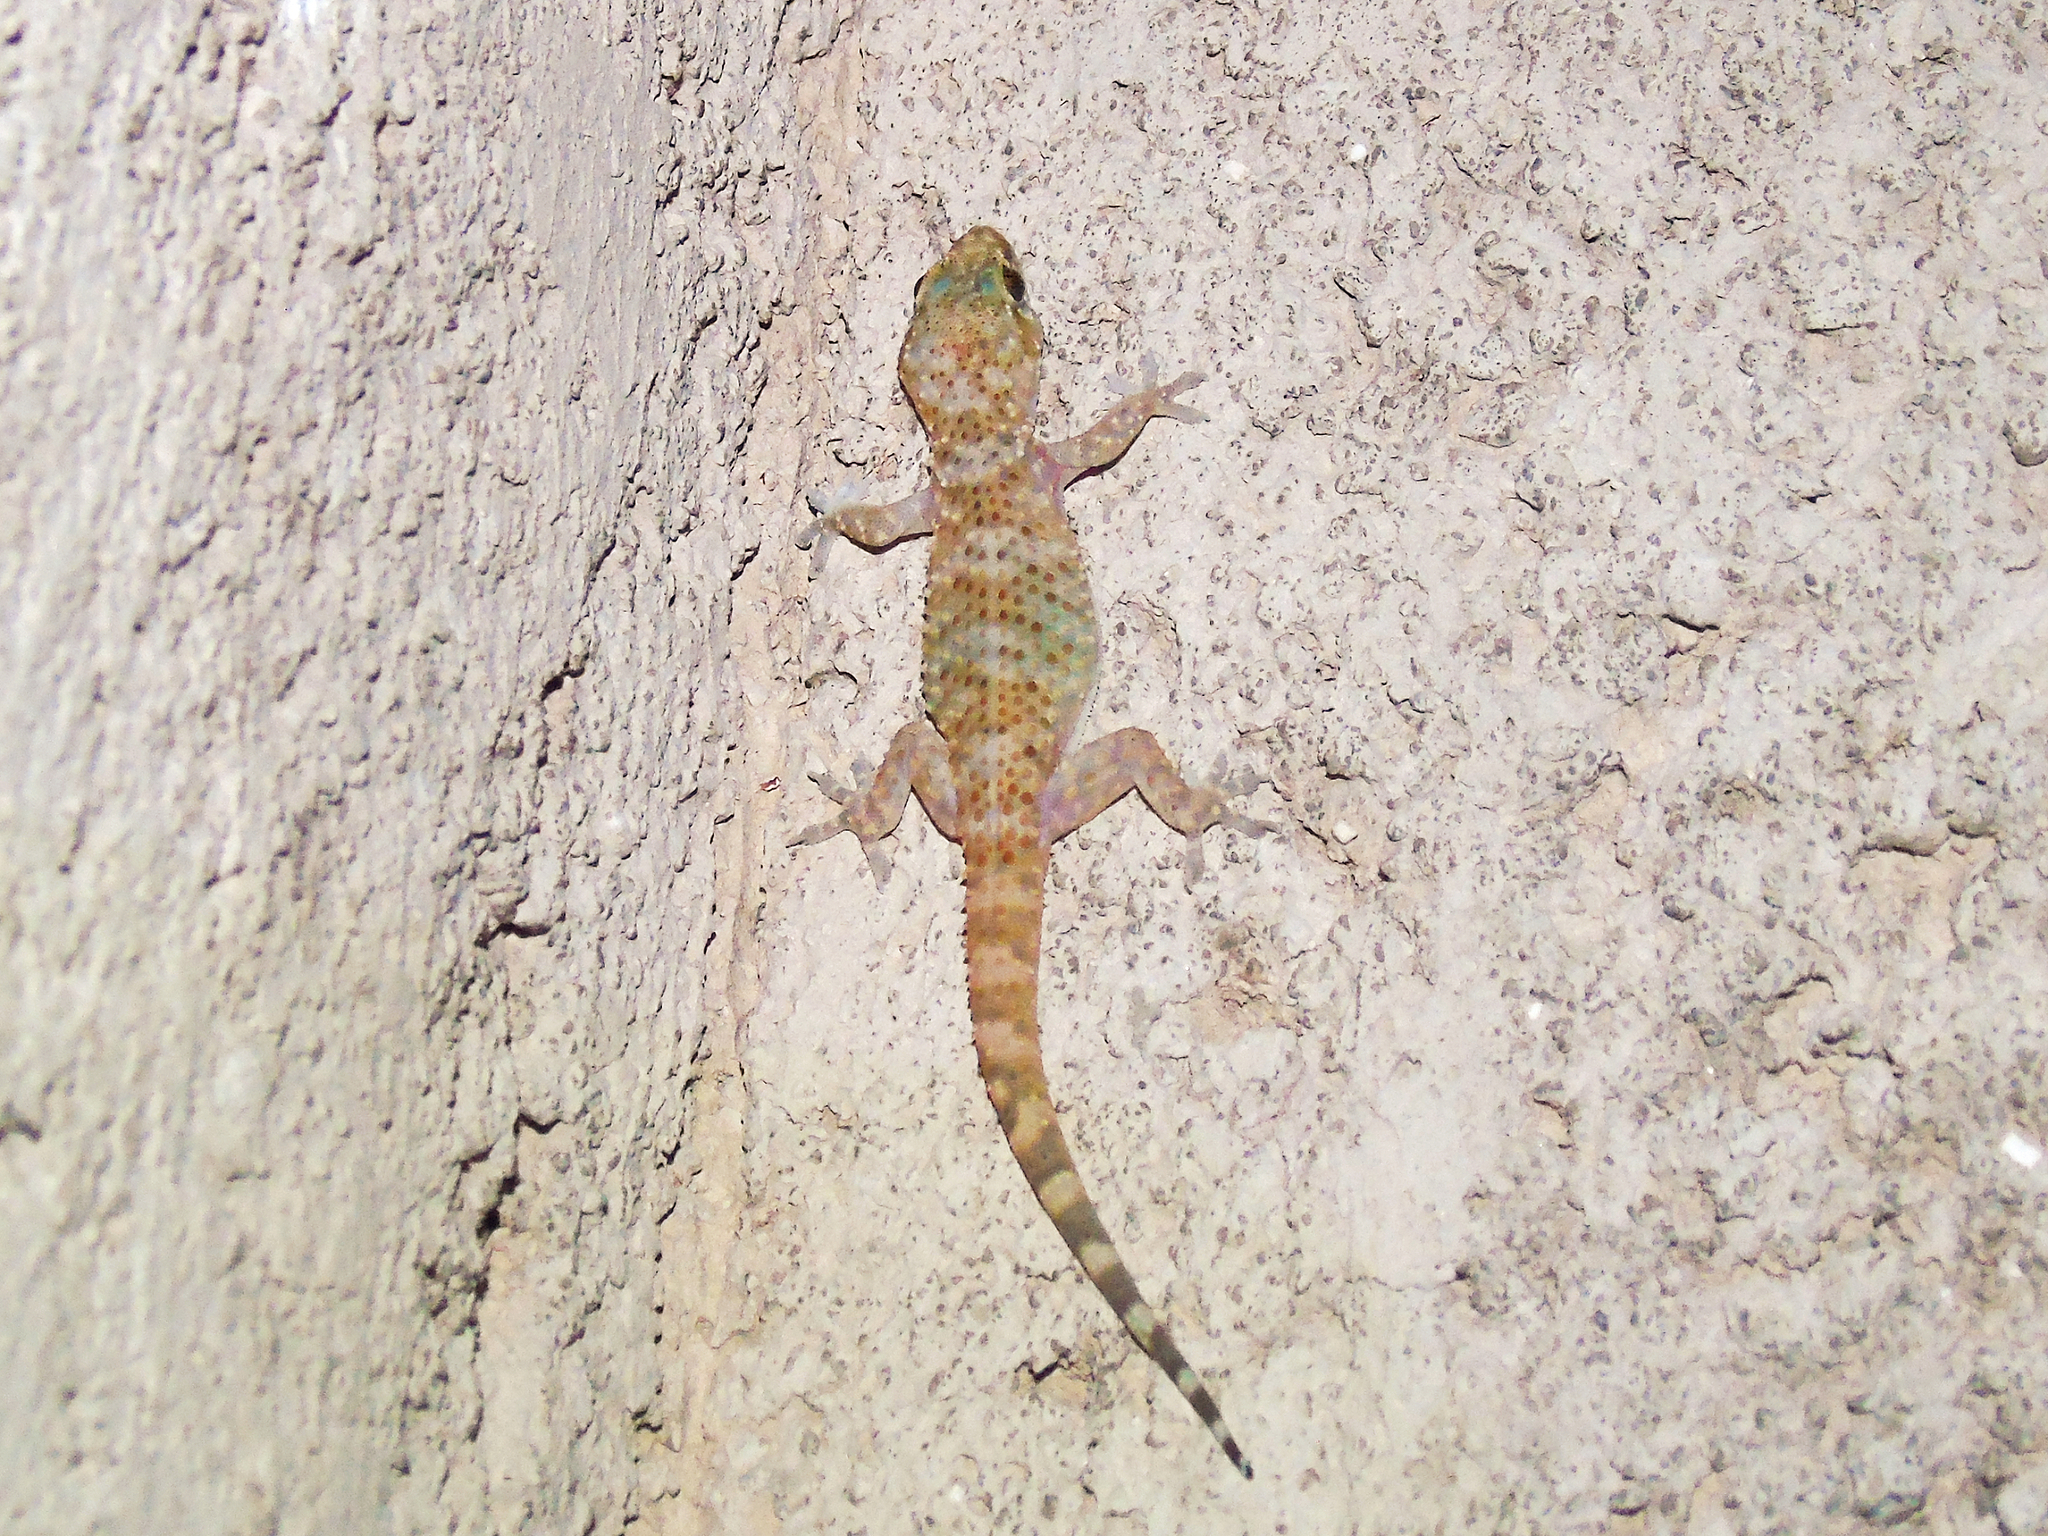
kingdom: Animalia
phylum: Chordata
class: Squamata
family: Gekkonidae
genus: Hemidactylus
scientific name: Hemidactylus turcicus
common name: Turkish gecko
